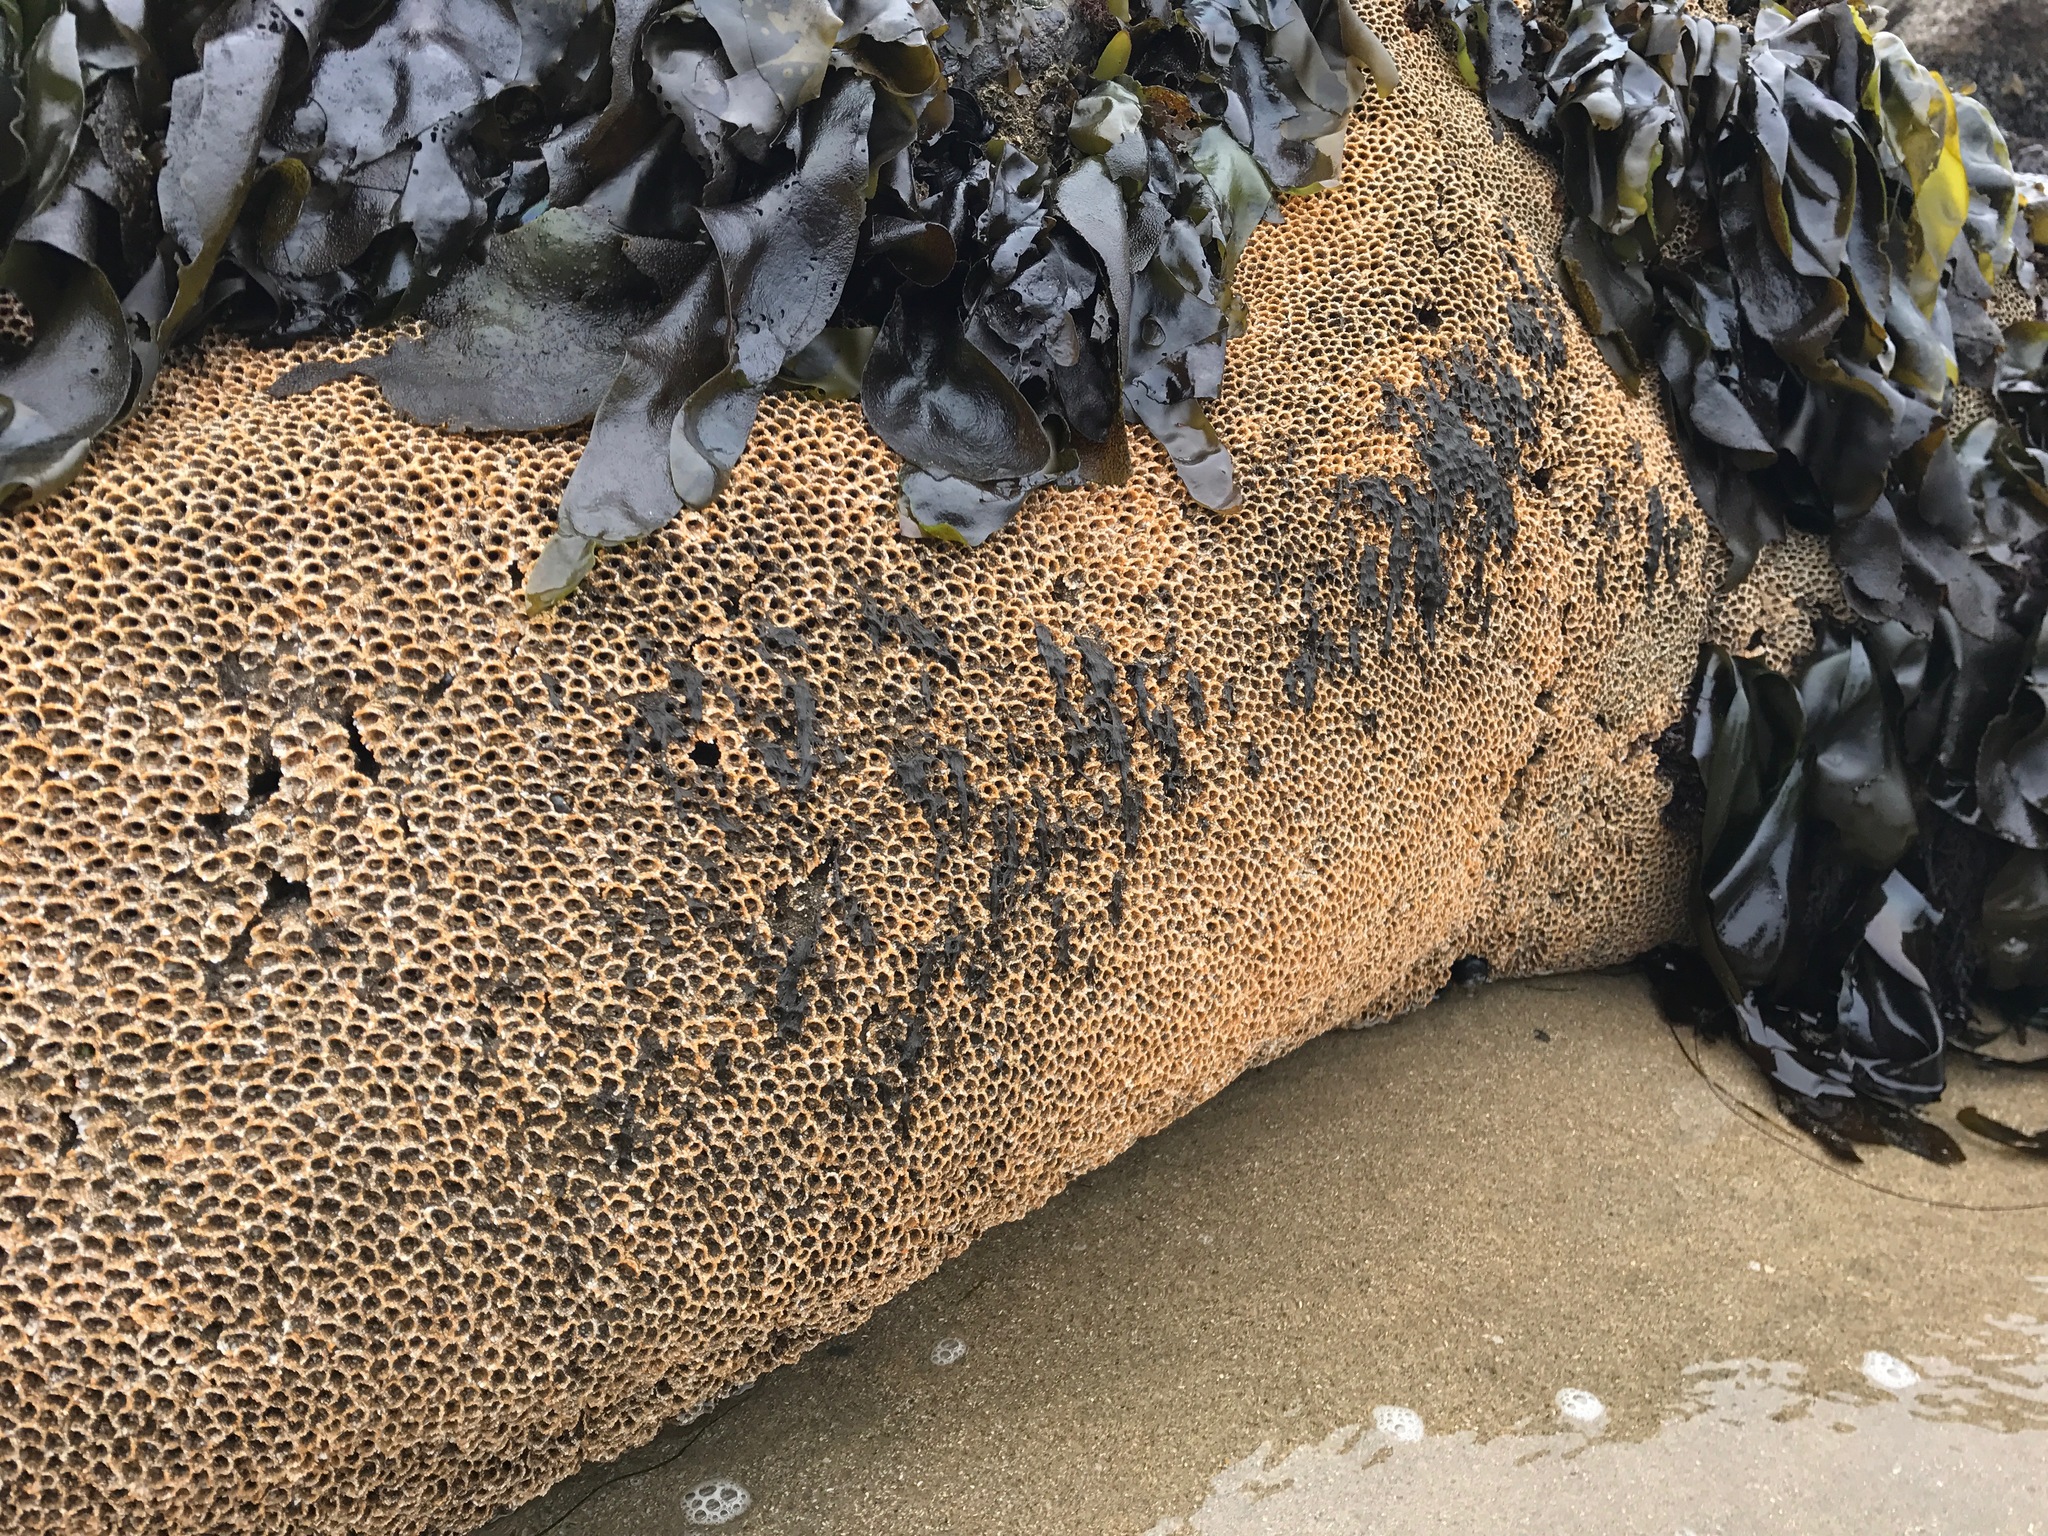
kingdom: Animalia
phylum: Annelida
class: Polychaeta
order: Sabellida
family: Sabellariidae
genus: Phragmatopoma
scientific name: Phragmatopoma californica
